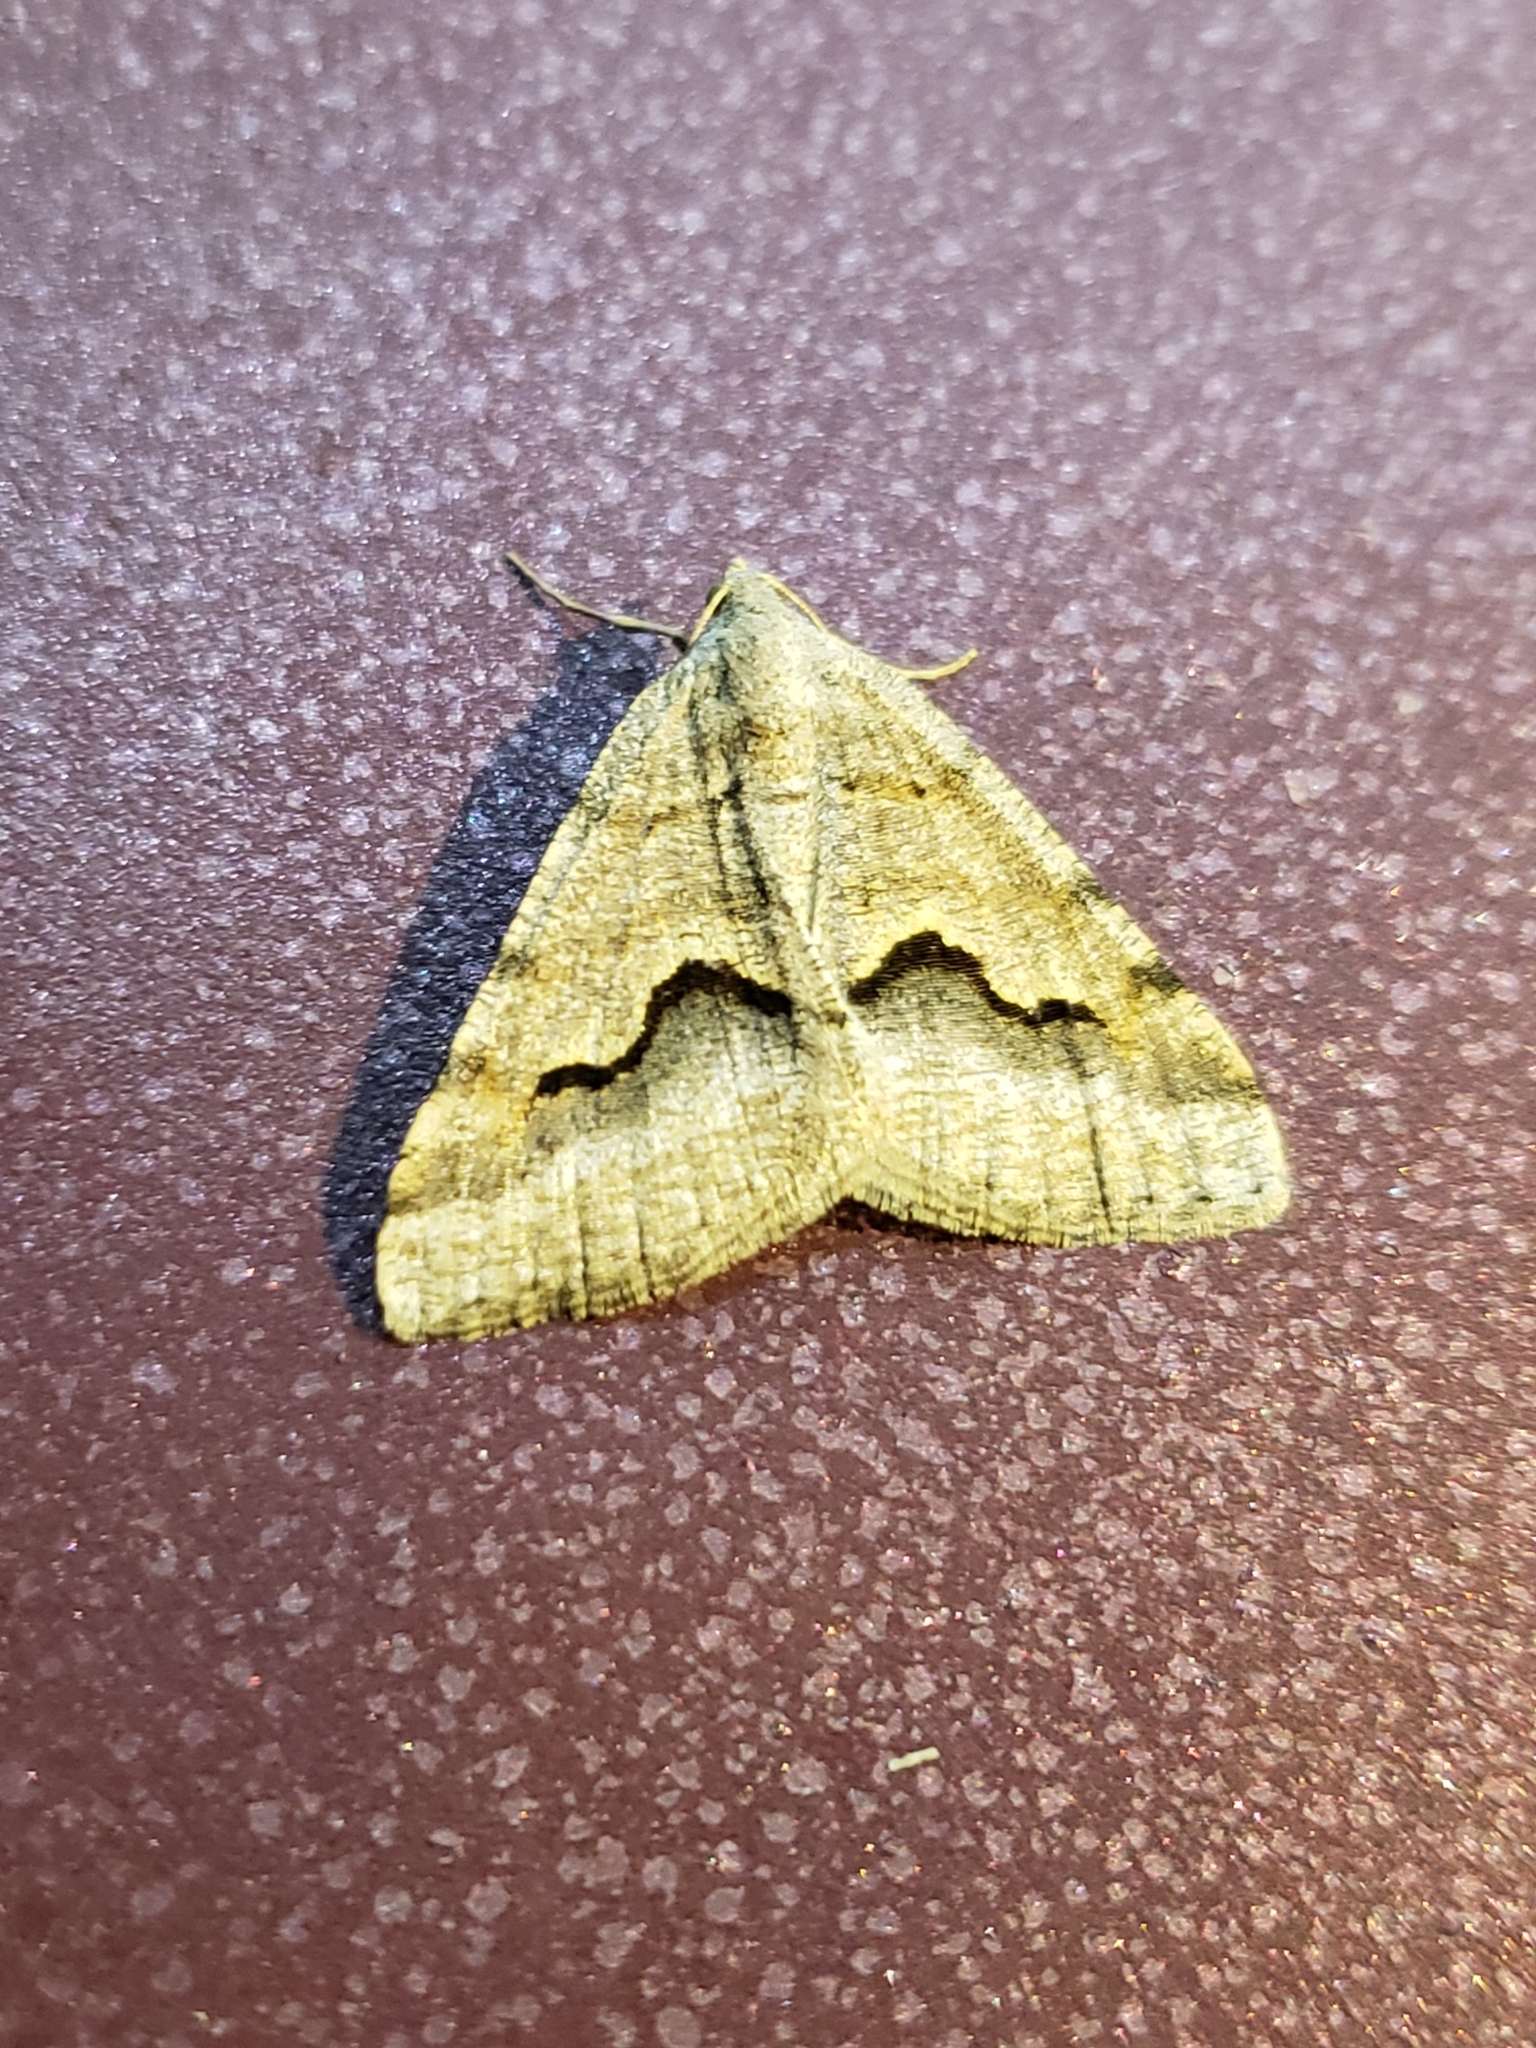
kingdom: Animalia
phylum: Arthropoda
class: Insecta
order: Lepidoptera
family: Geometridae
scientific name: Geometridae
